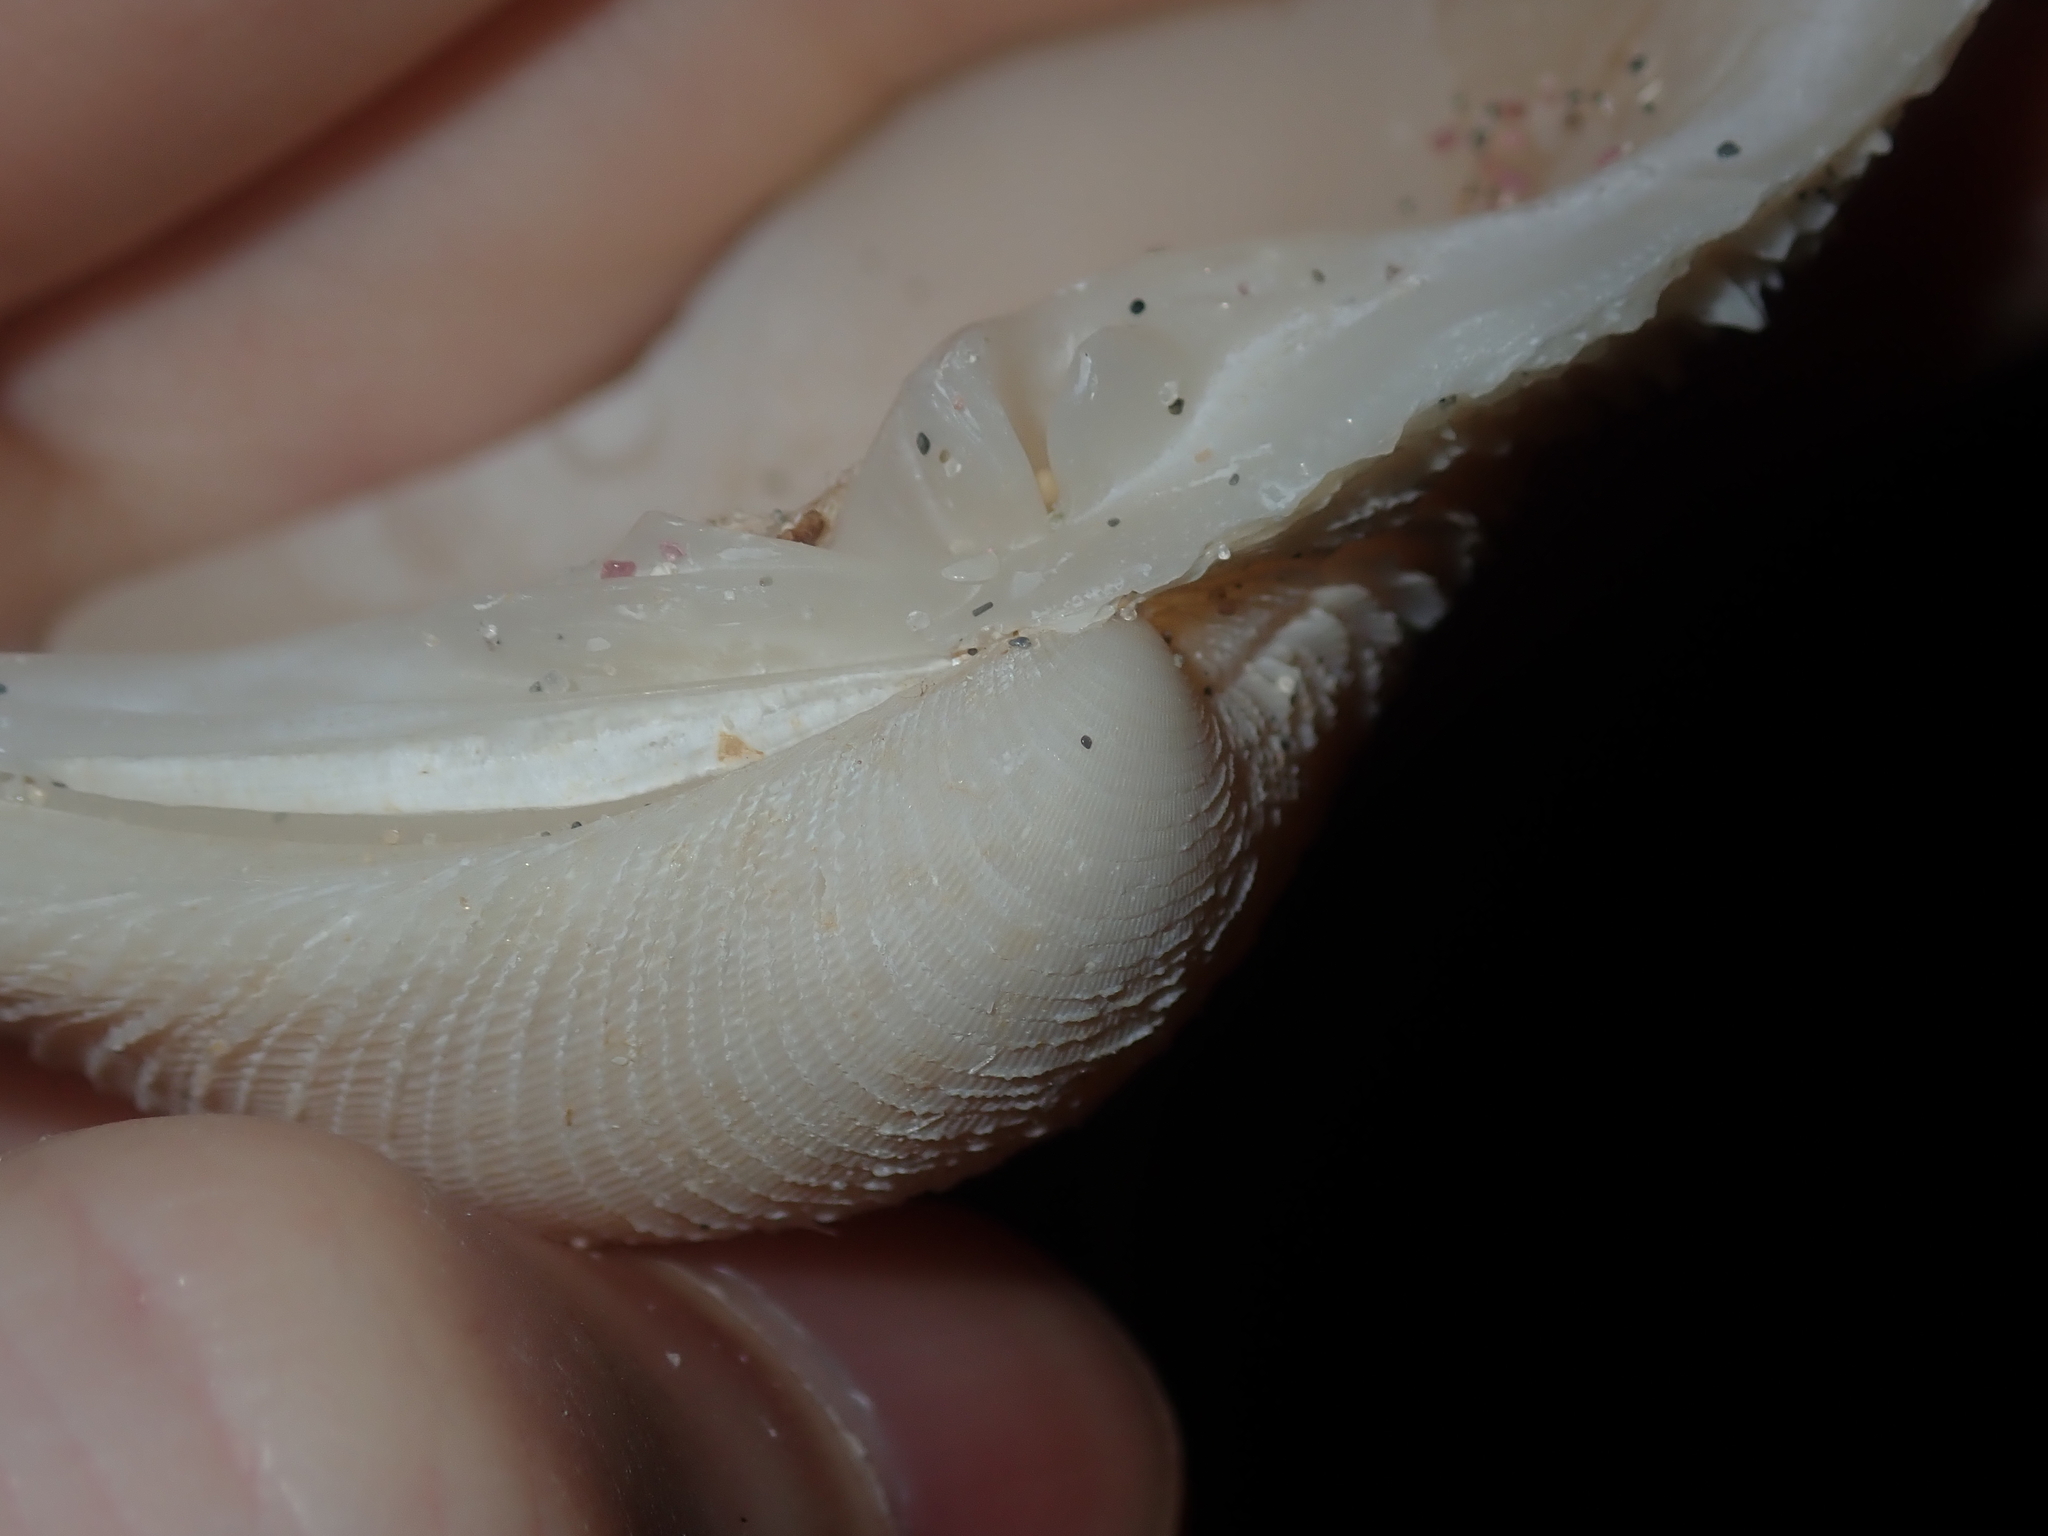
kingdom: Animalia
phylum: Mollusca
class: Bivalvia
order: Venerida
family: Veneridae
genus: Antigona
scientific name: Antigona laqueata
